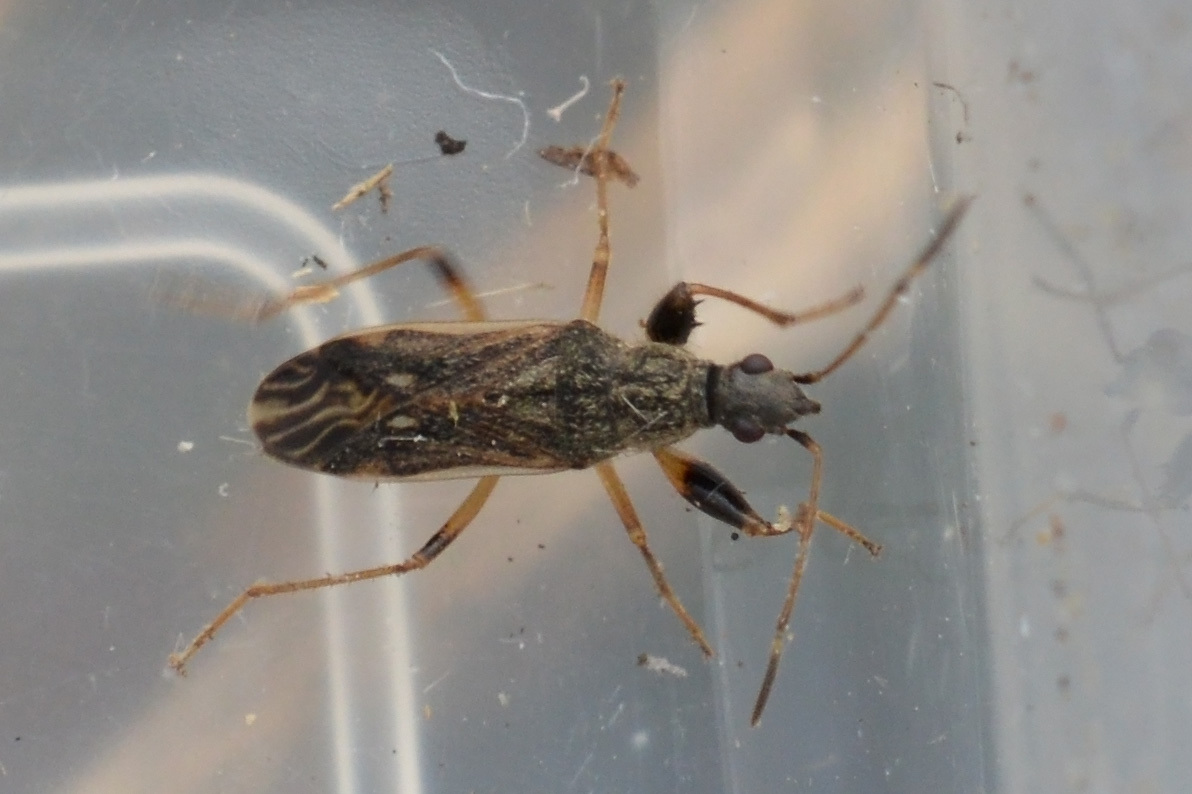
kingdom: Animalia
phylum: Arthropoda
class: Insecta
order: Hemiptera
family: Rhyparochromidae
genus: Paraparomius
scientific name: Paraparomius leptopoides
